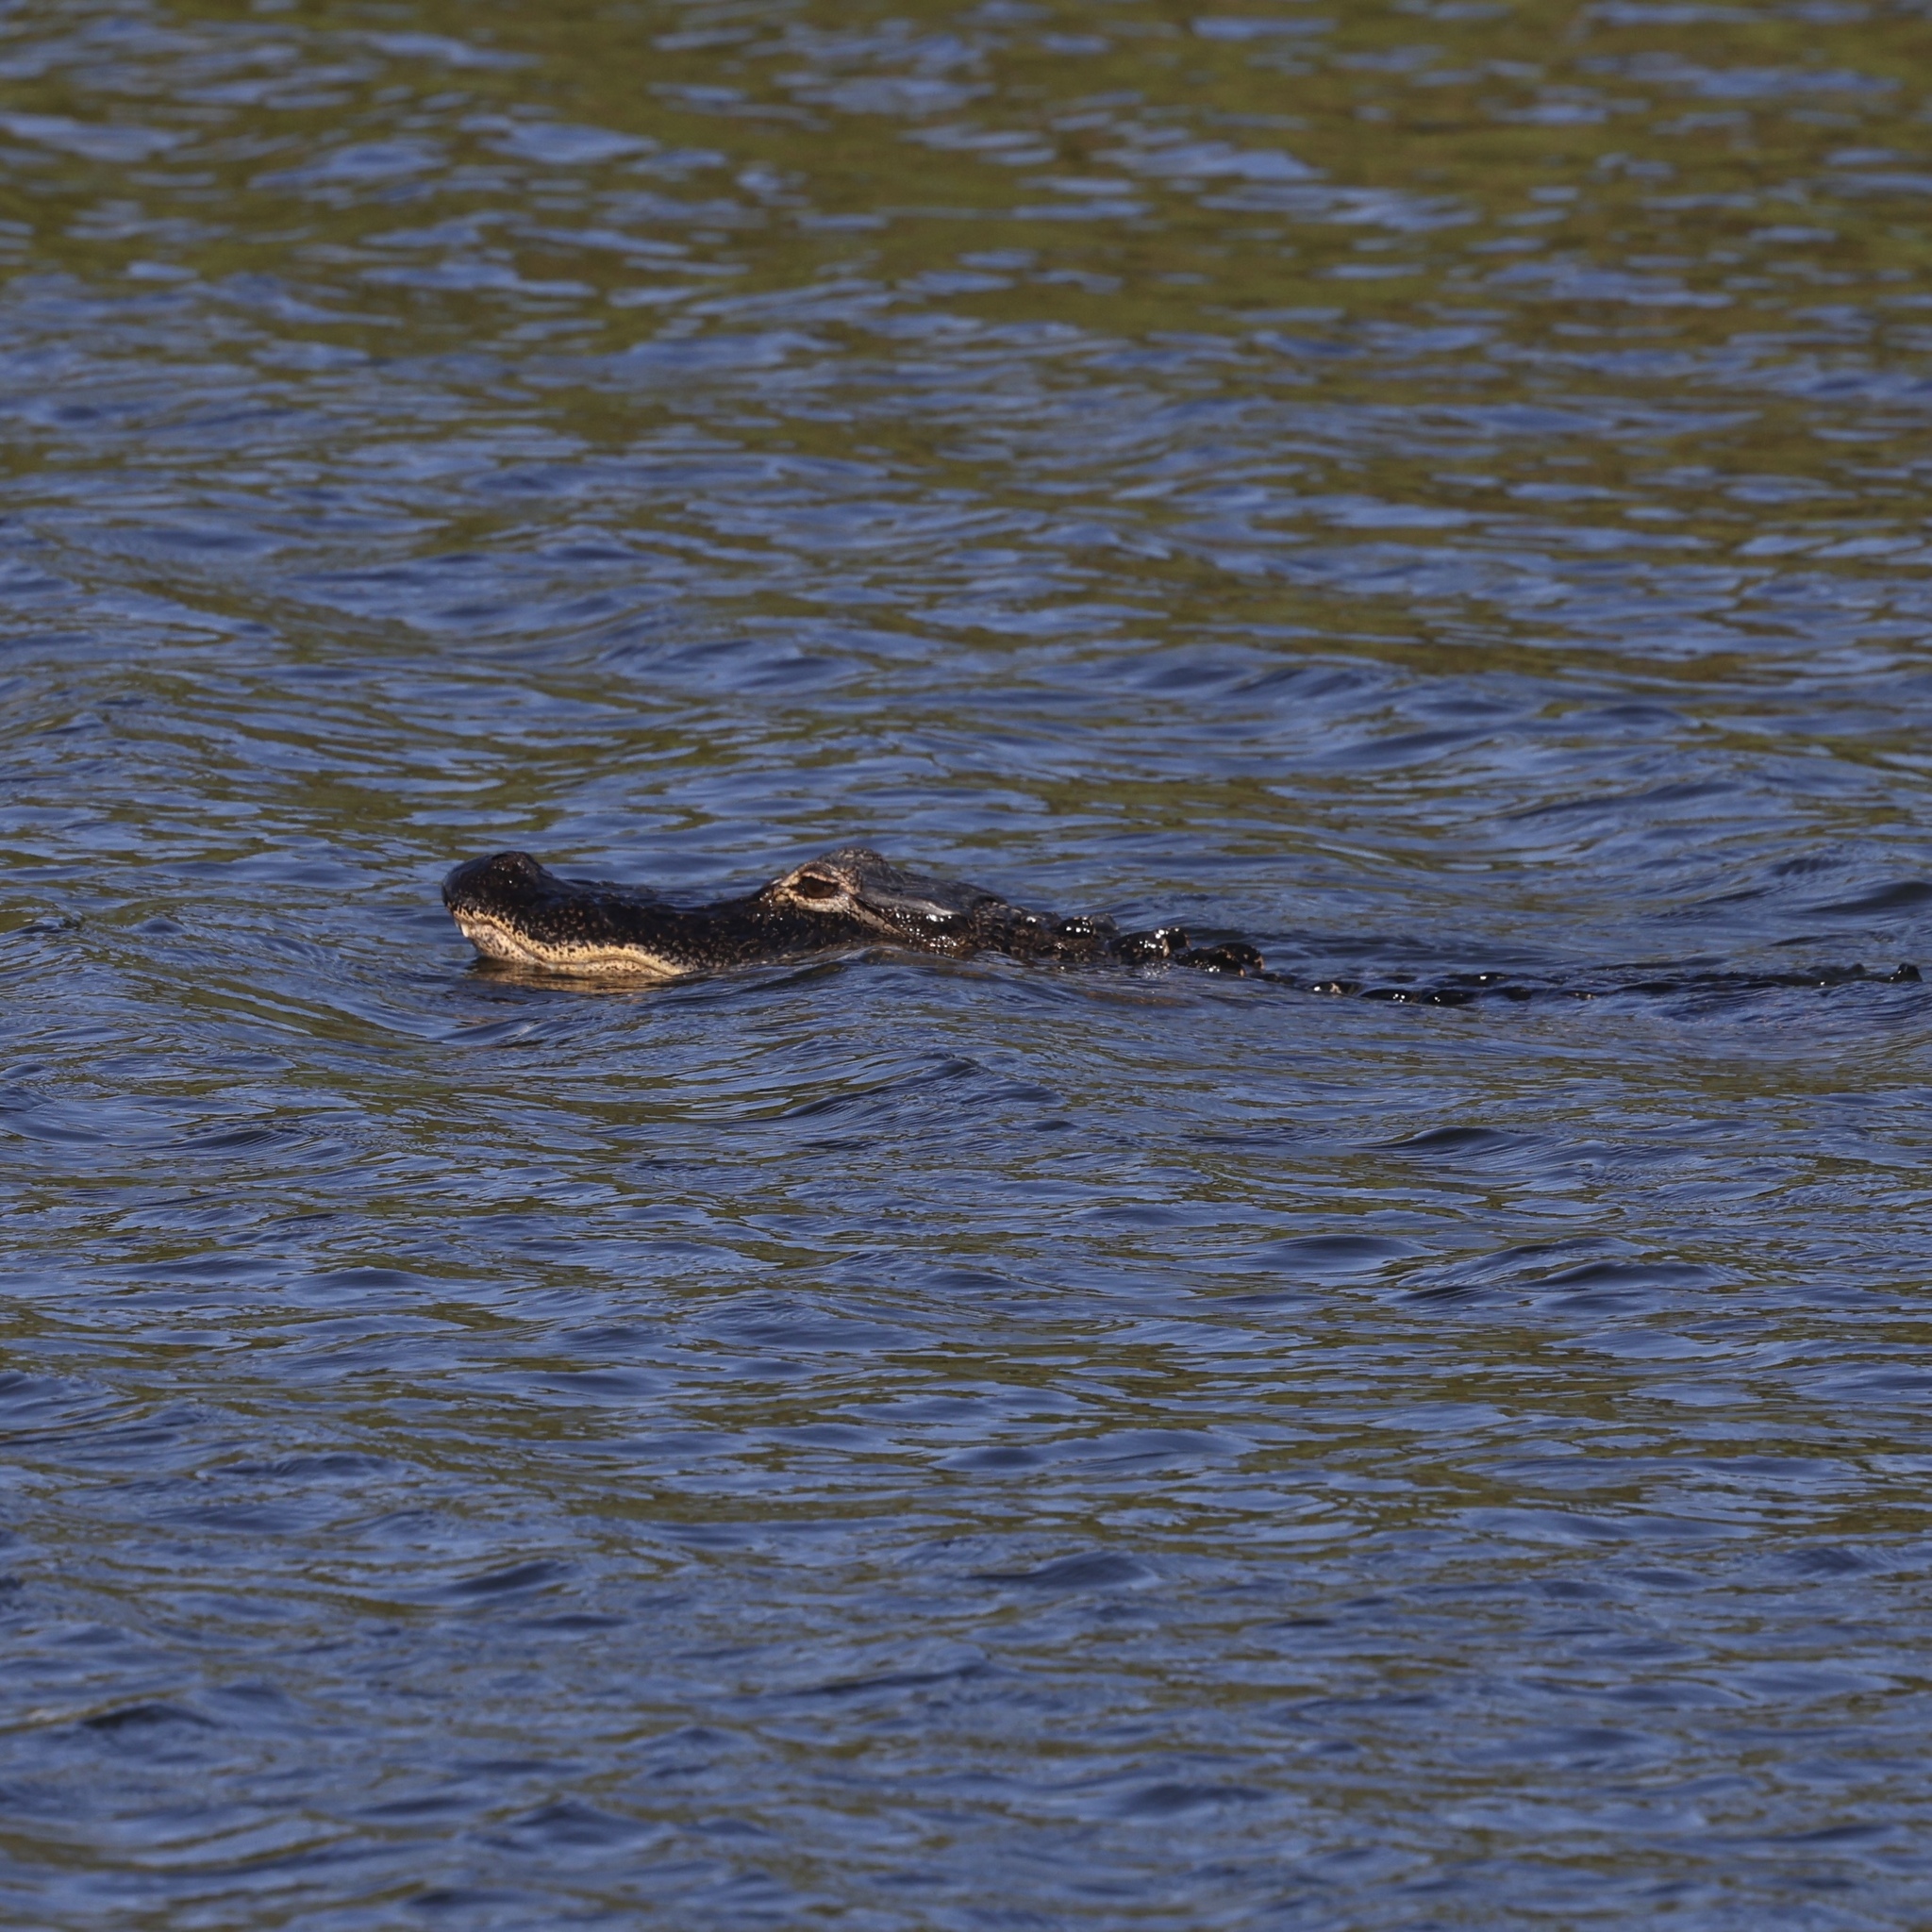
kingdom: Animalia
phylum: Chordata
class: Crocodylia
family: Alligatoridae
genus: Alligator
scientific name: Alligator mississippiensis
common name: American alligator
